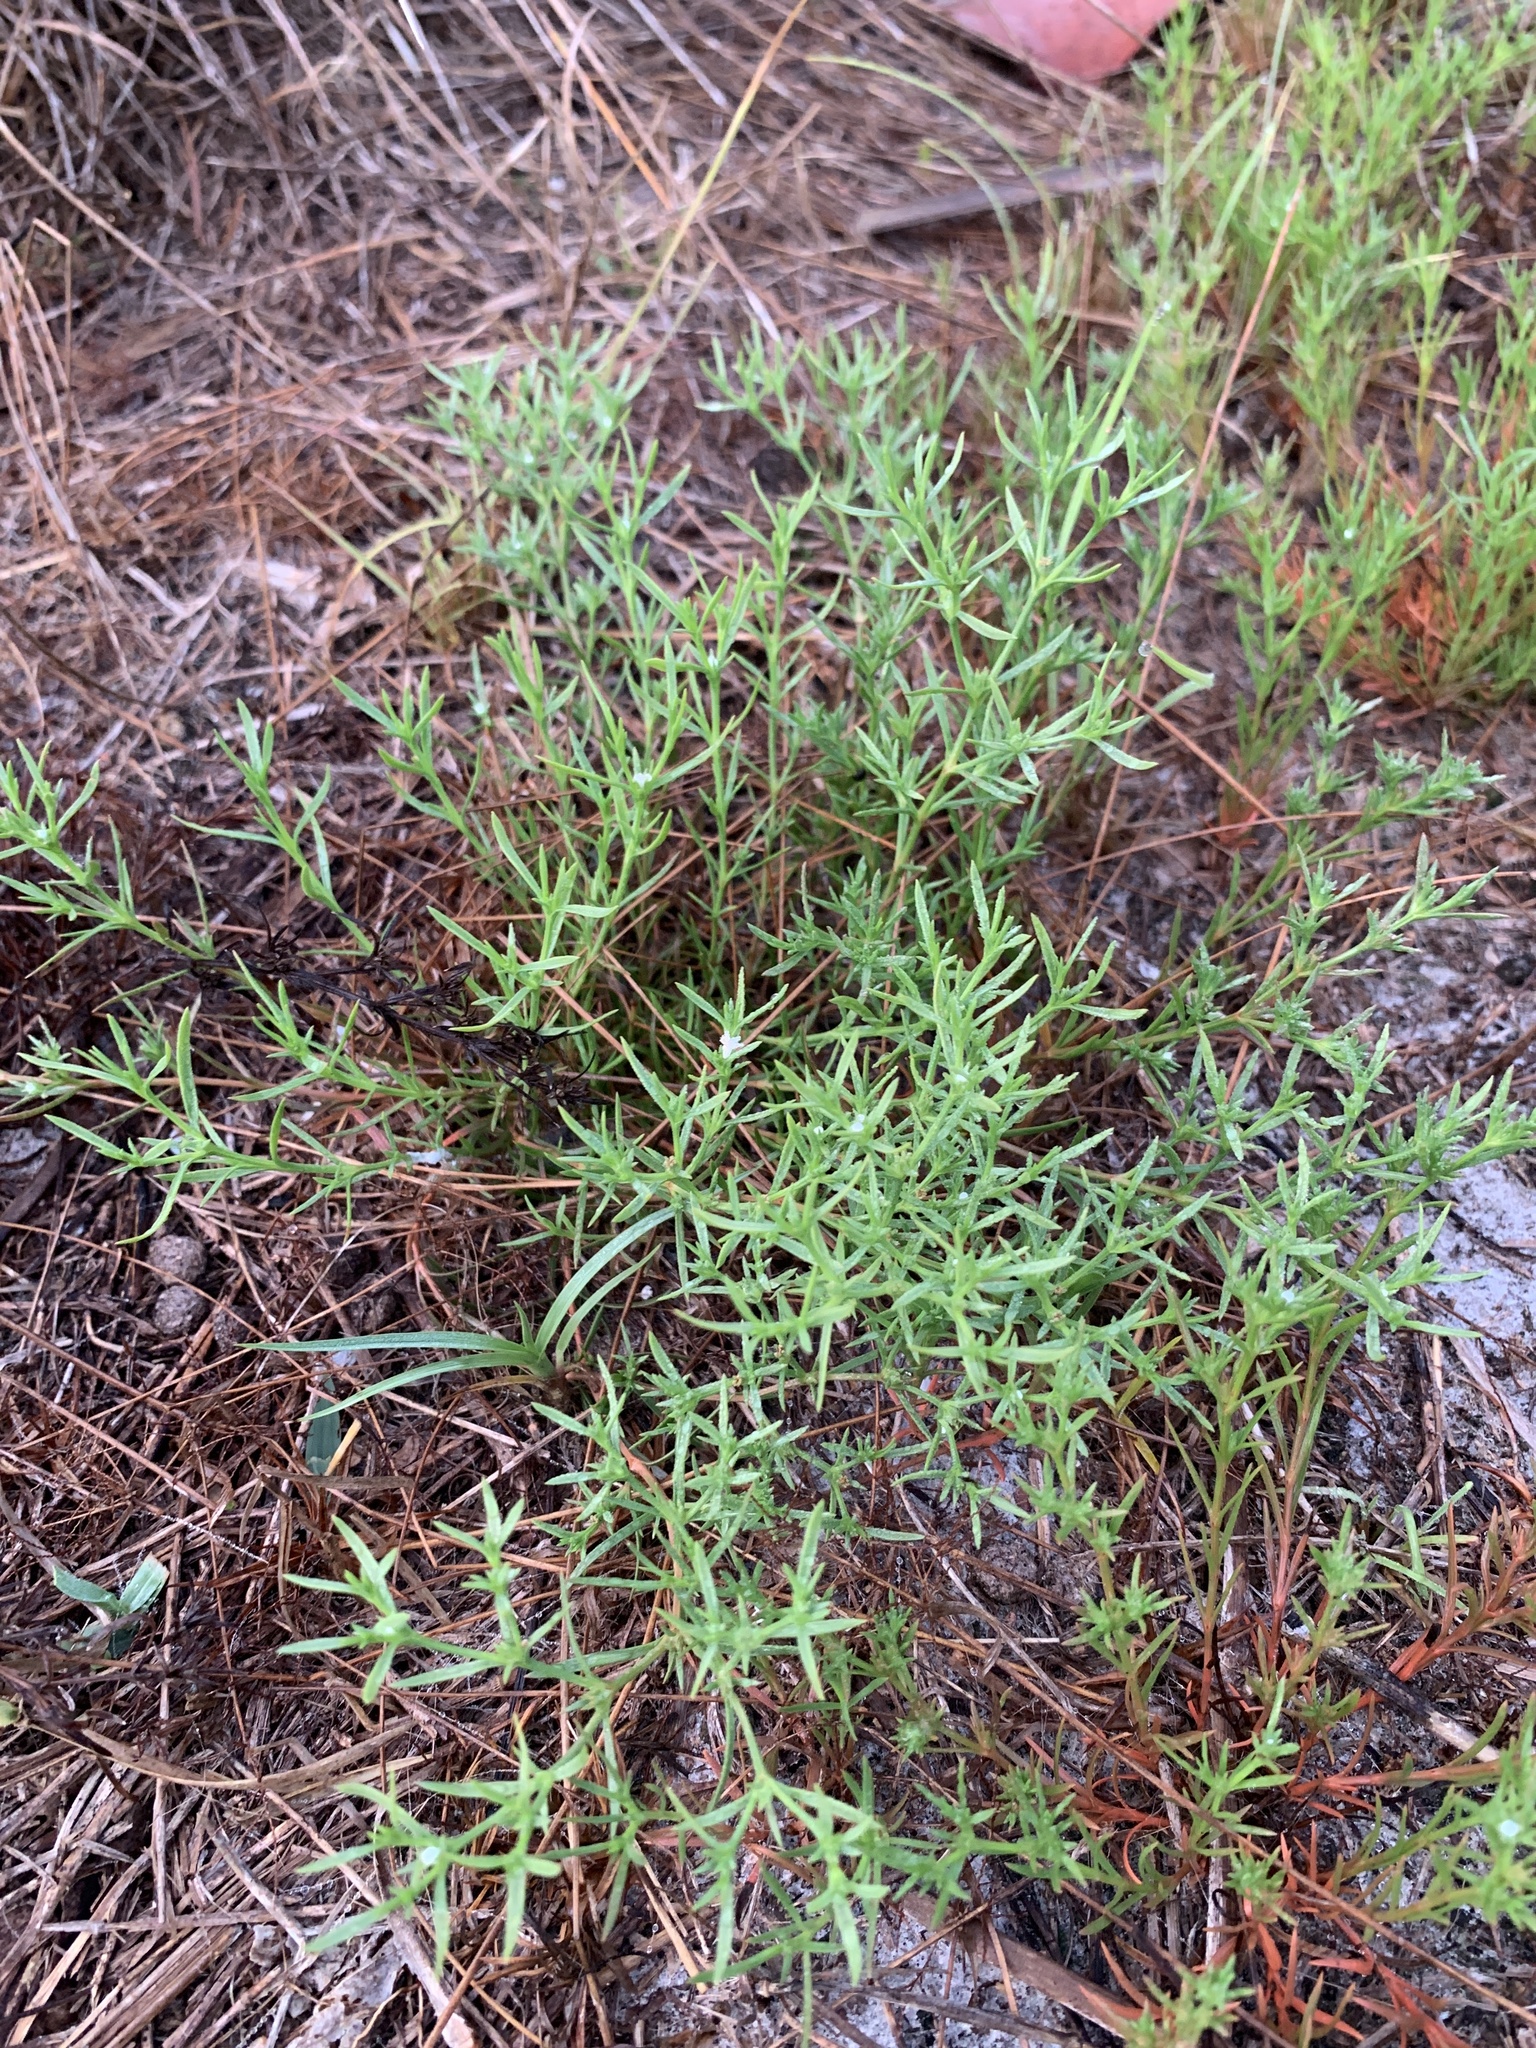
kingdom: Plantae
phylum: Tracheophyta
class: Magnoliopsida
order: Lamiales
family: Tetrachondraceae
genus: Polypremum
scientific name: Polypremum procumbens
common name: Juniper-leaf
